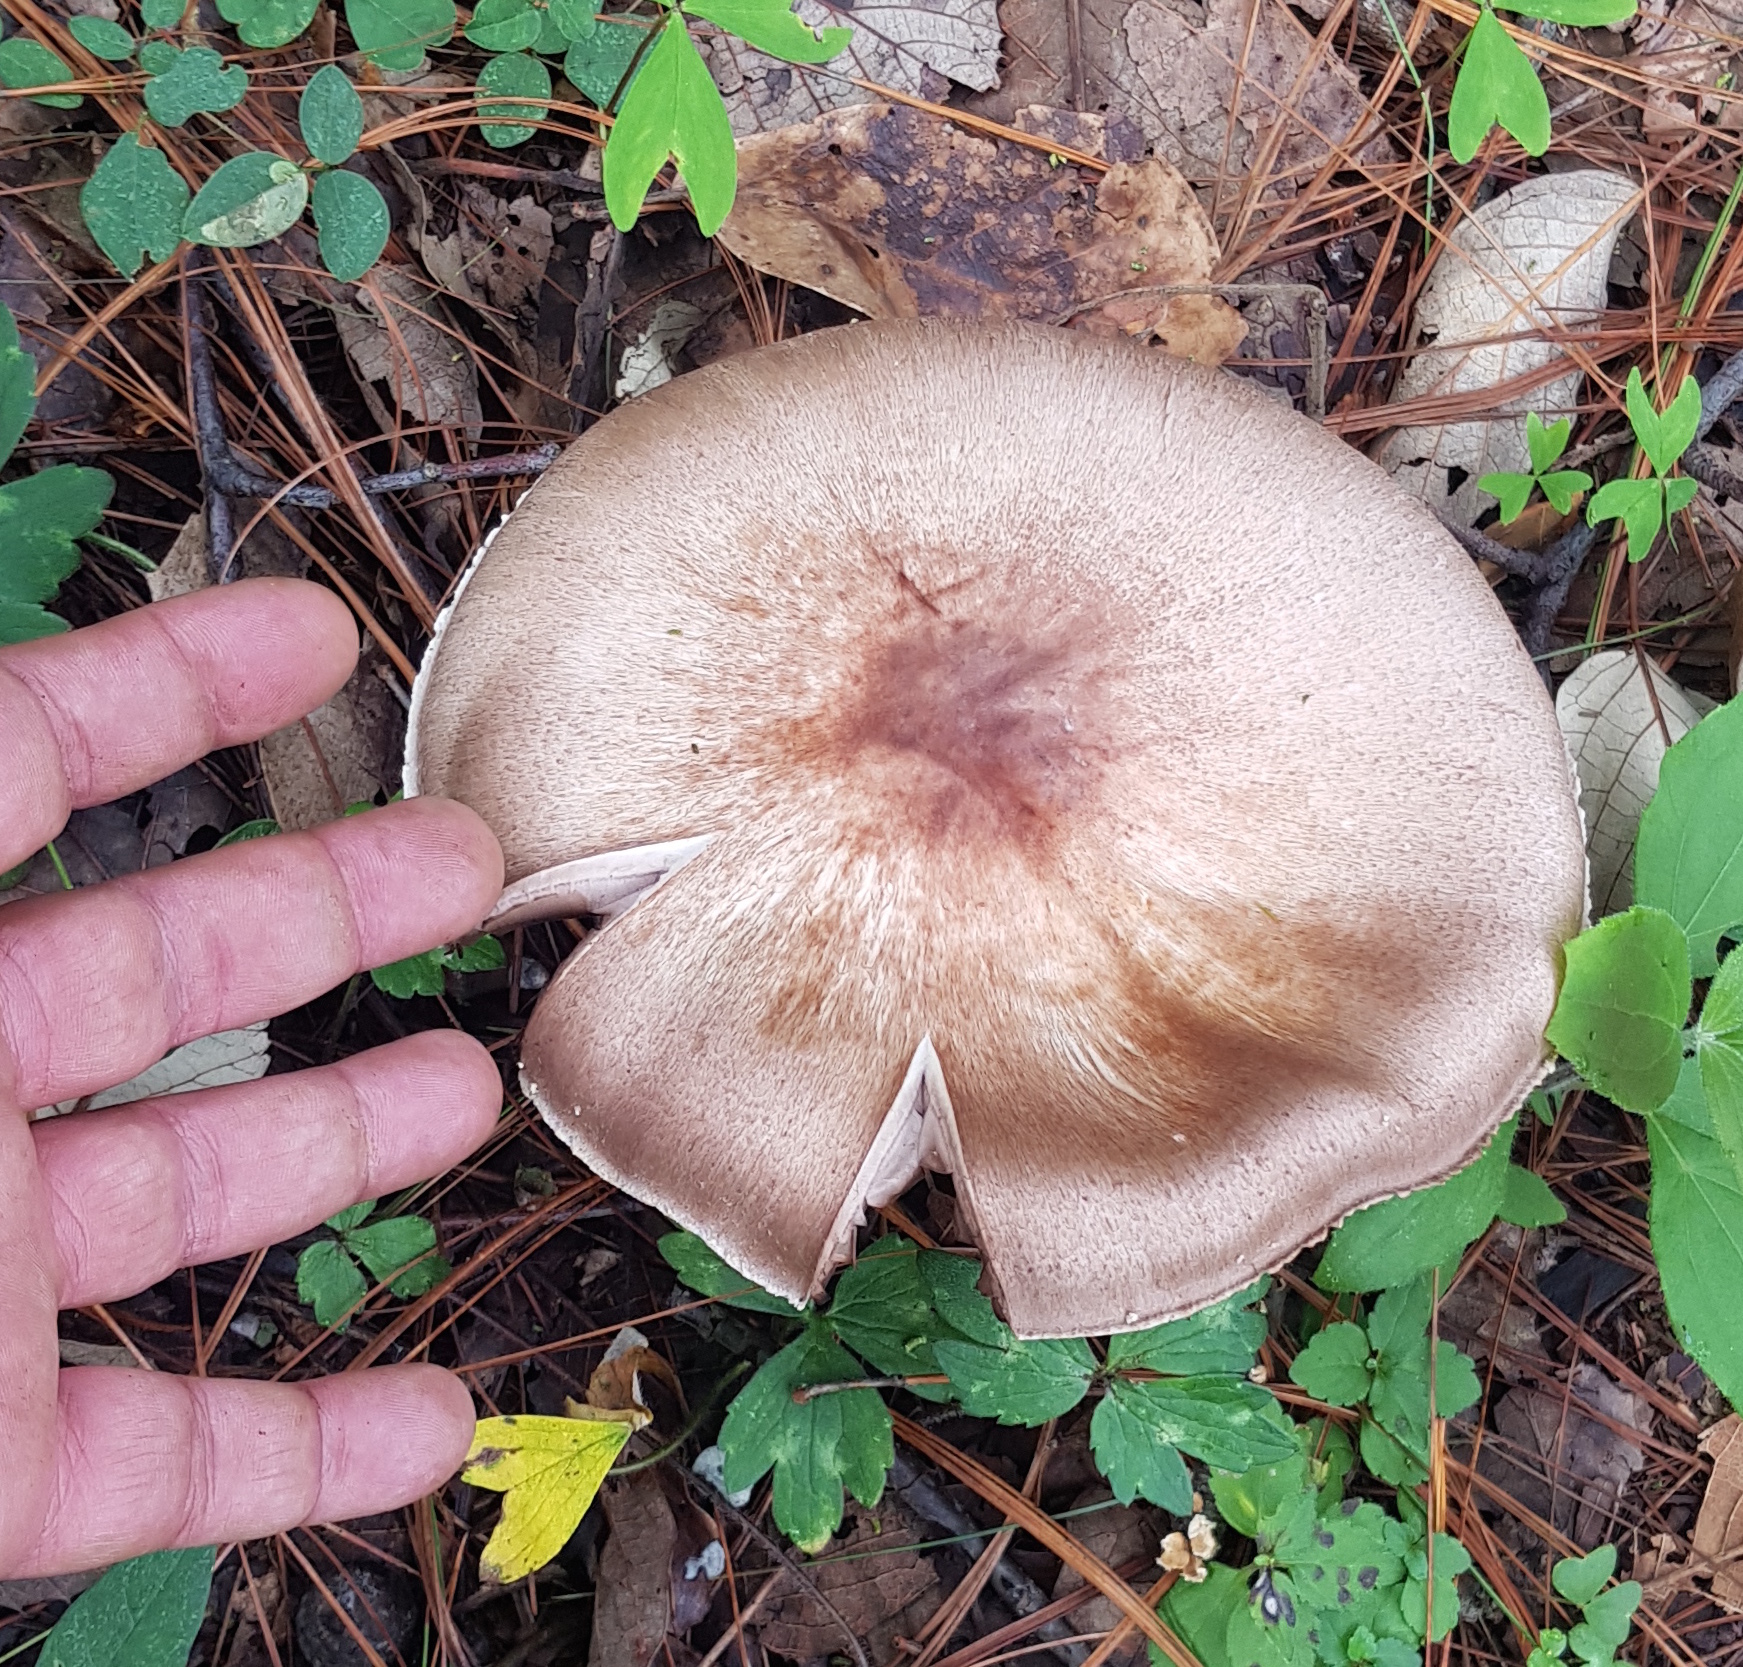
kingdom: Fungi
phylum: Basidiomycota
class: Agaricomycetes
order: Agaricales
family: Agaricaceae
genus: Agaricus
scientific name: Agaricus subrutilescens
